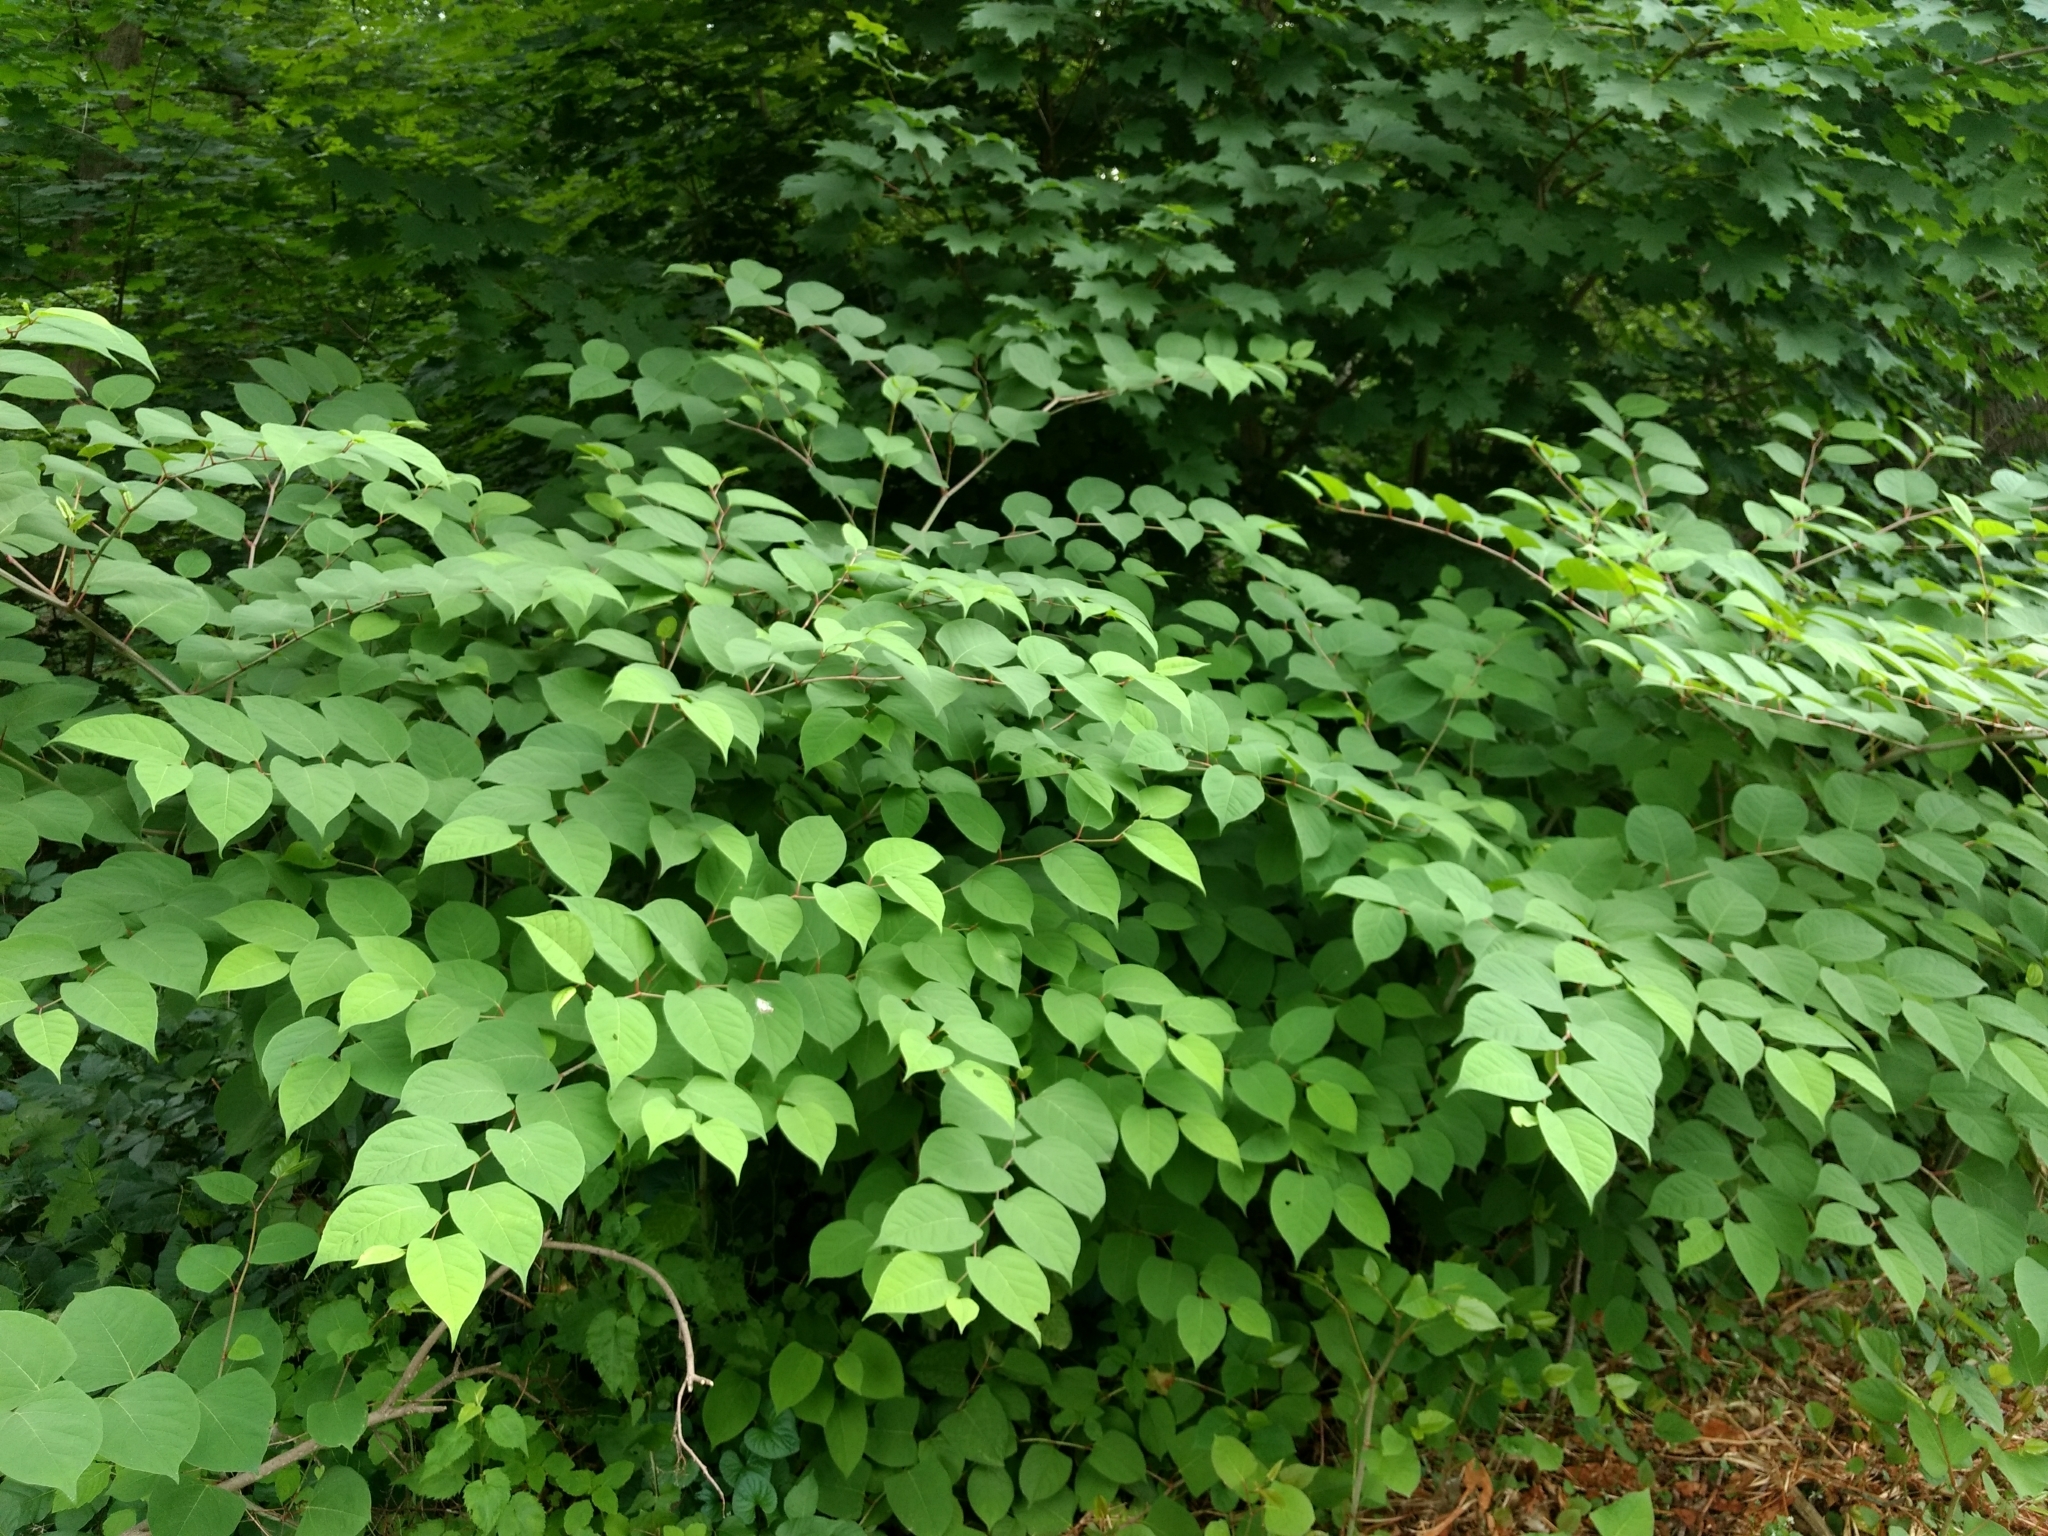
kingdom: Plantae
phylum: Tracheophyta
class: Magnoliopsida
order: Caryophyllales
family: Polygonaceae
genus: Reynoutria
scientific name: Reynoutria japonica
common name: Japanese knotweed
